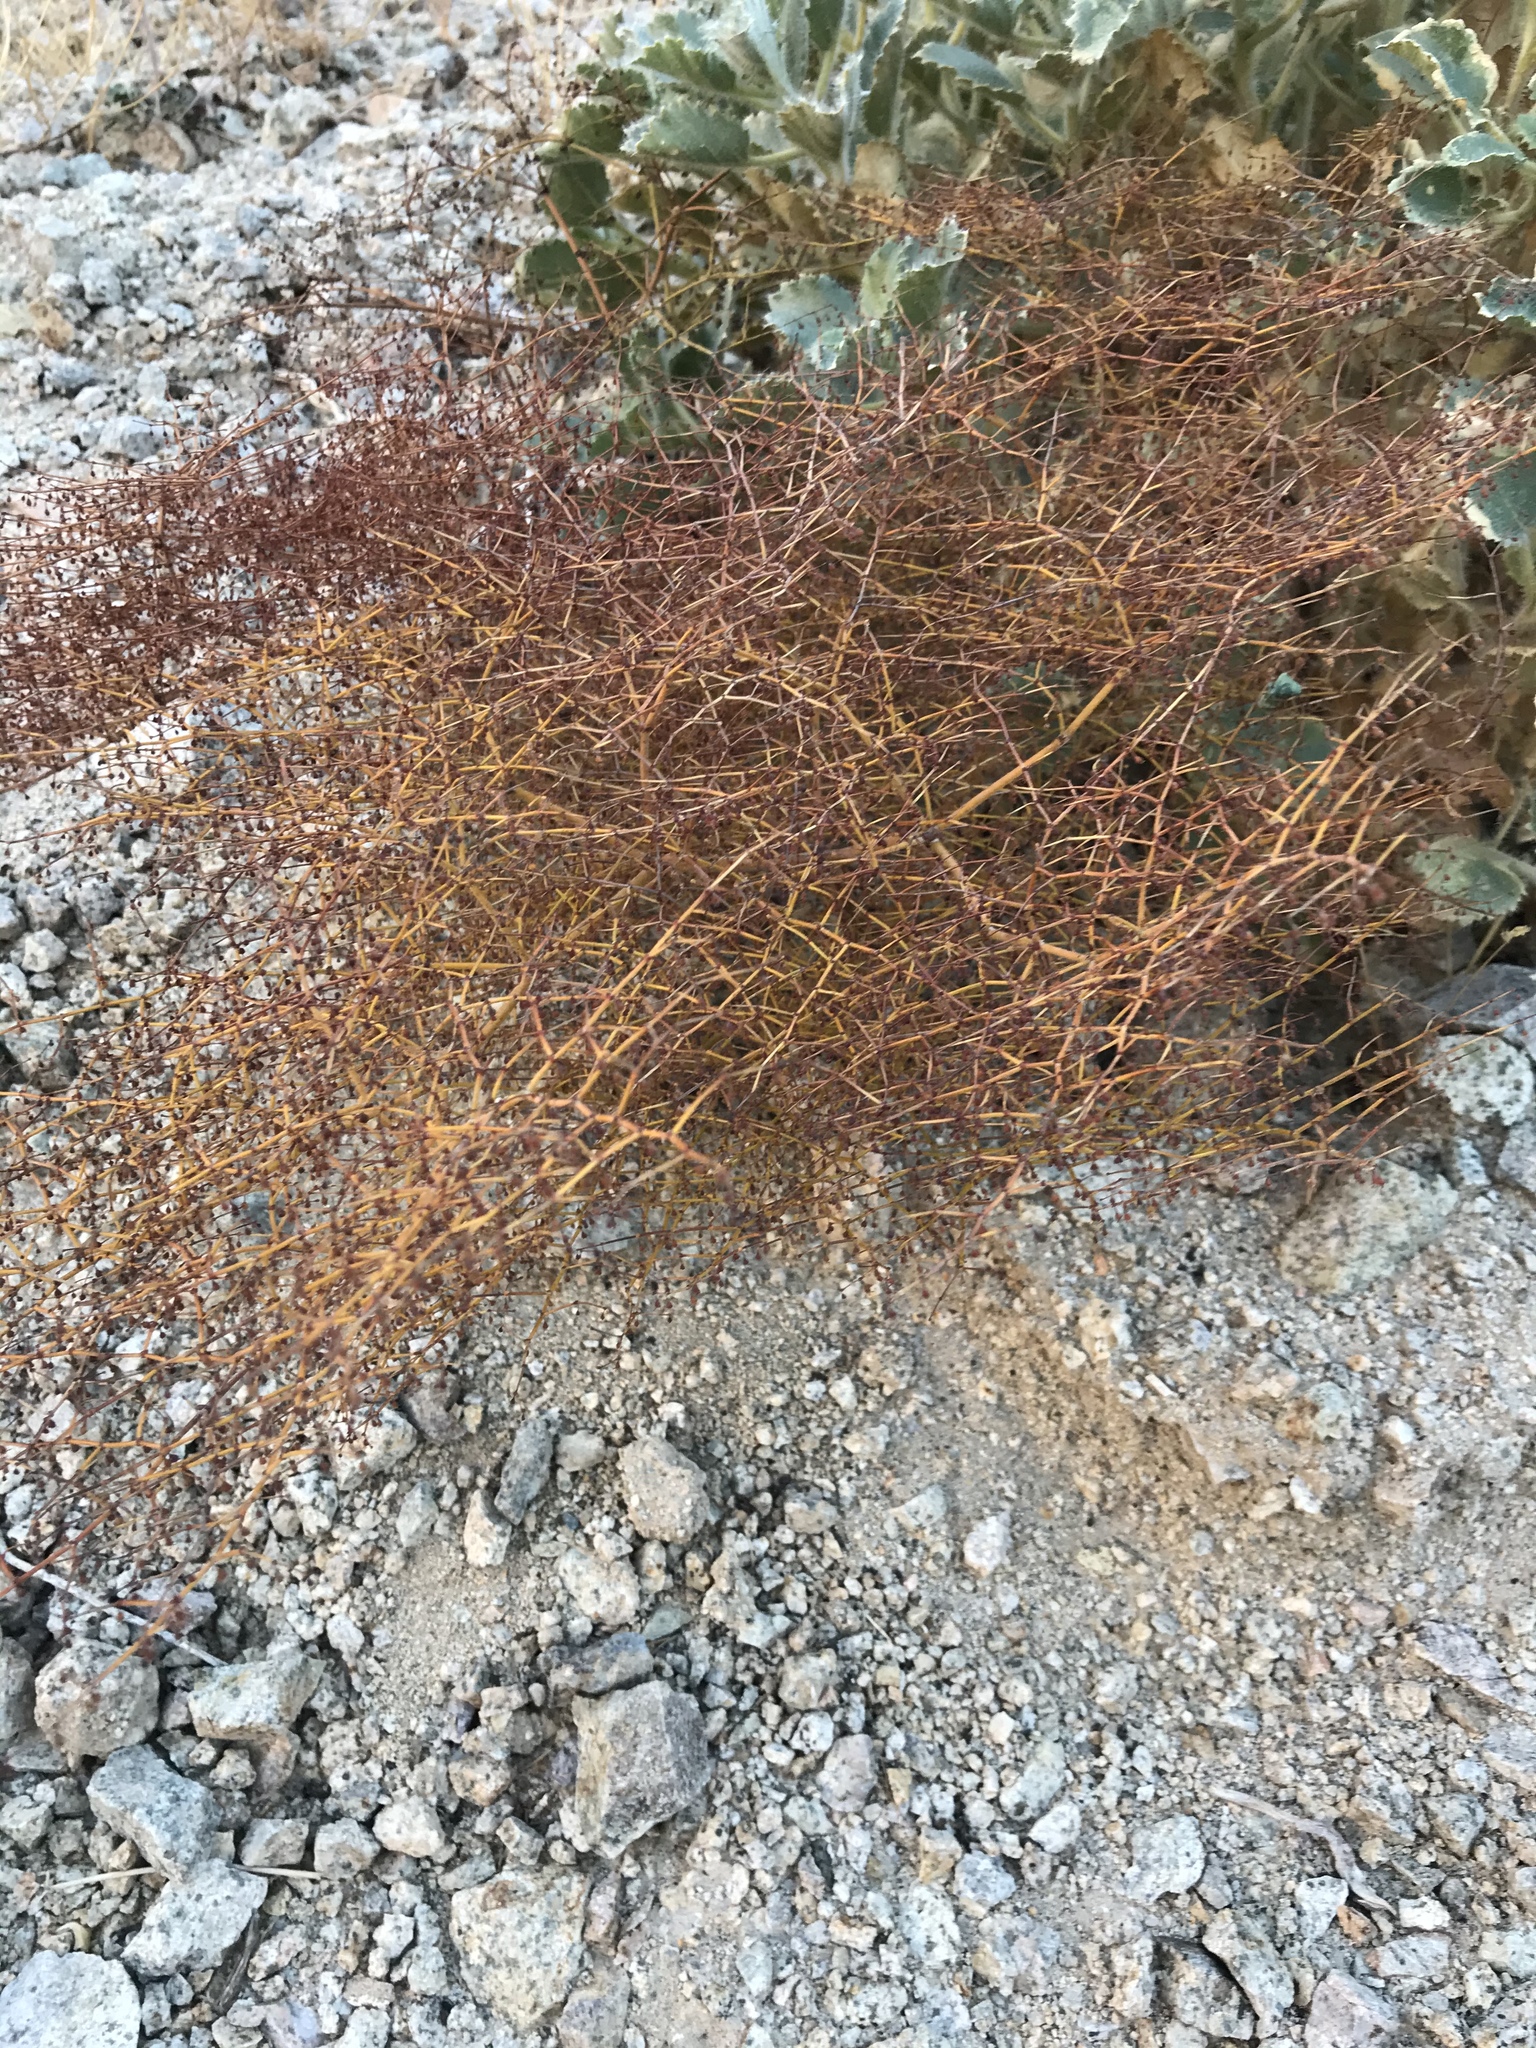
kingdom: Plantae
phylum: Tracheophyta
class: Magnoliopsida
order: Caryophyllales
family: Polygonaceae
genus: Eriogonum
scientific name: Eriogonum deflexum
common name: Skeleton-weed
